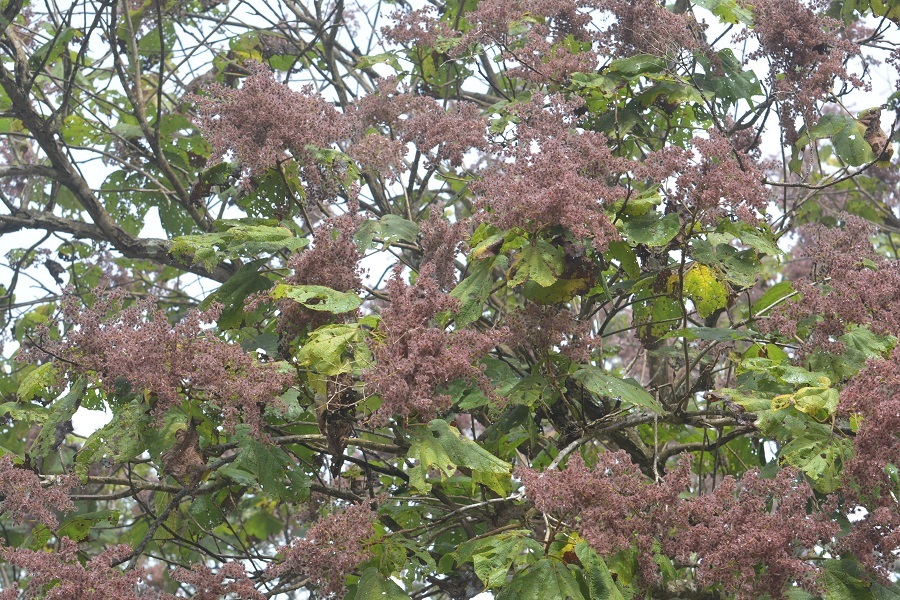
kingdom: Plantae
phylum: Tracheophyta
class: Magnoliopsida
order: Malvales
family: Malvaceae
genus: Heliocarpus
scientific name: Heliocarpus americanus
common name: White moho
